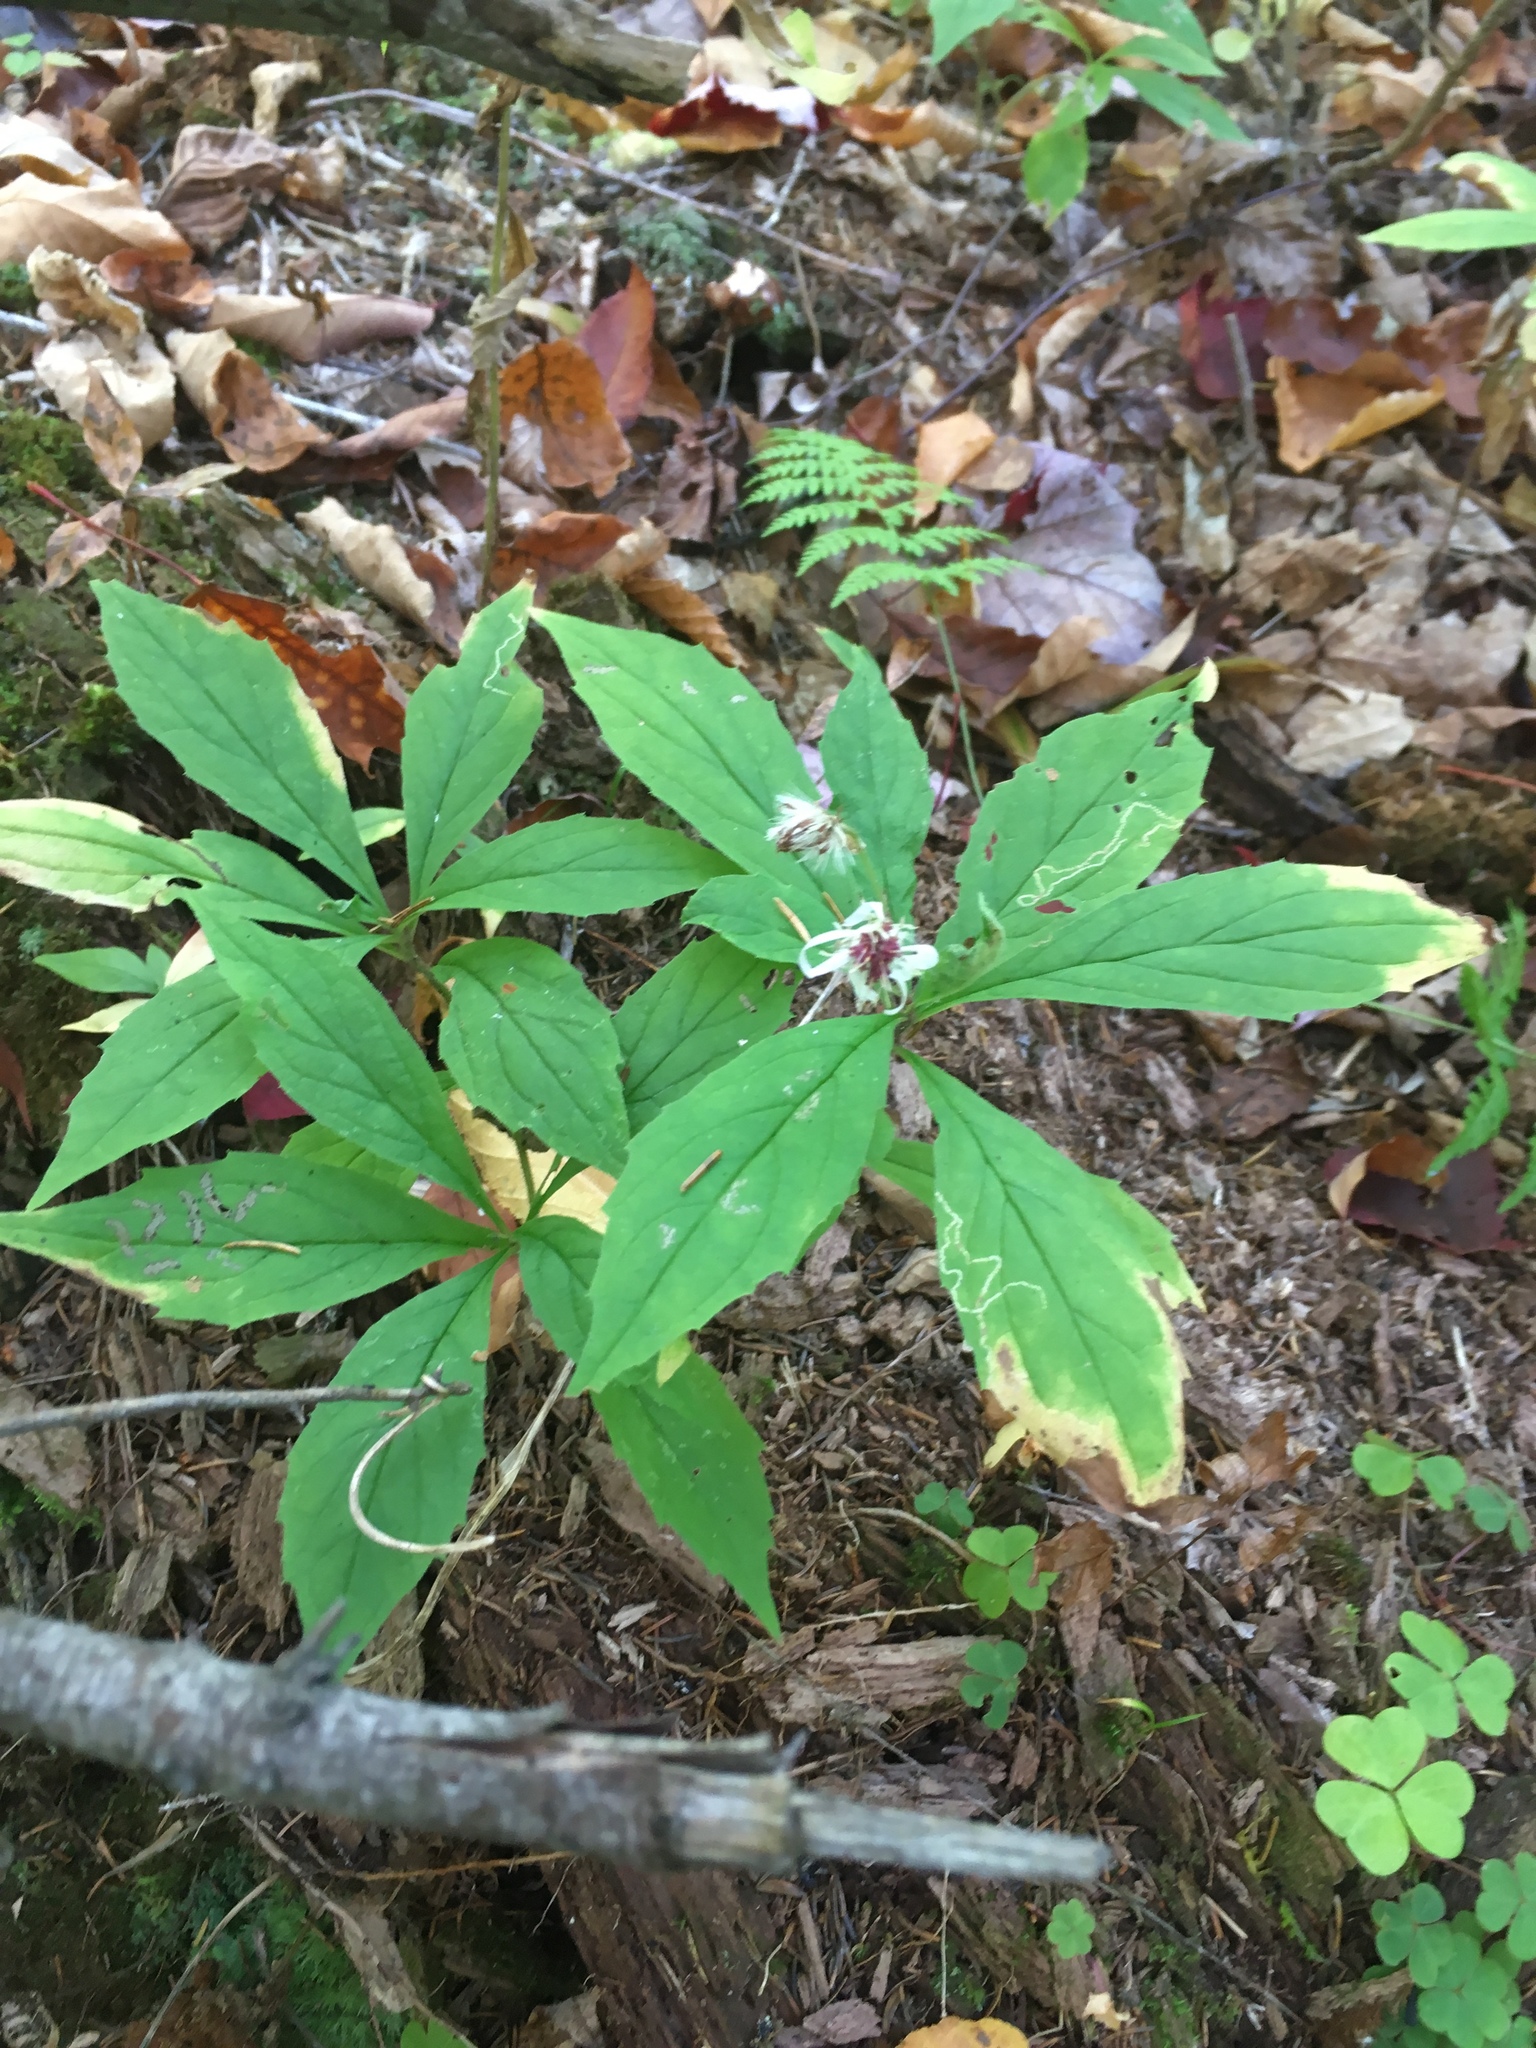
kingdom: Plantae
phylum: Tracheophyta
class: Magnoliopsida
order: Asterales
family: Asteraceae
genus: Oclemena
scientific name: Oclemena acuminata
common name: Mountain aster
